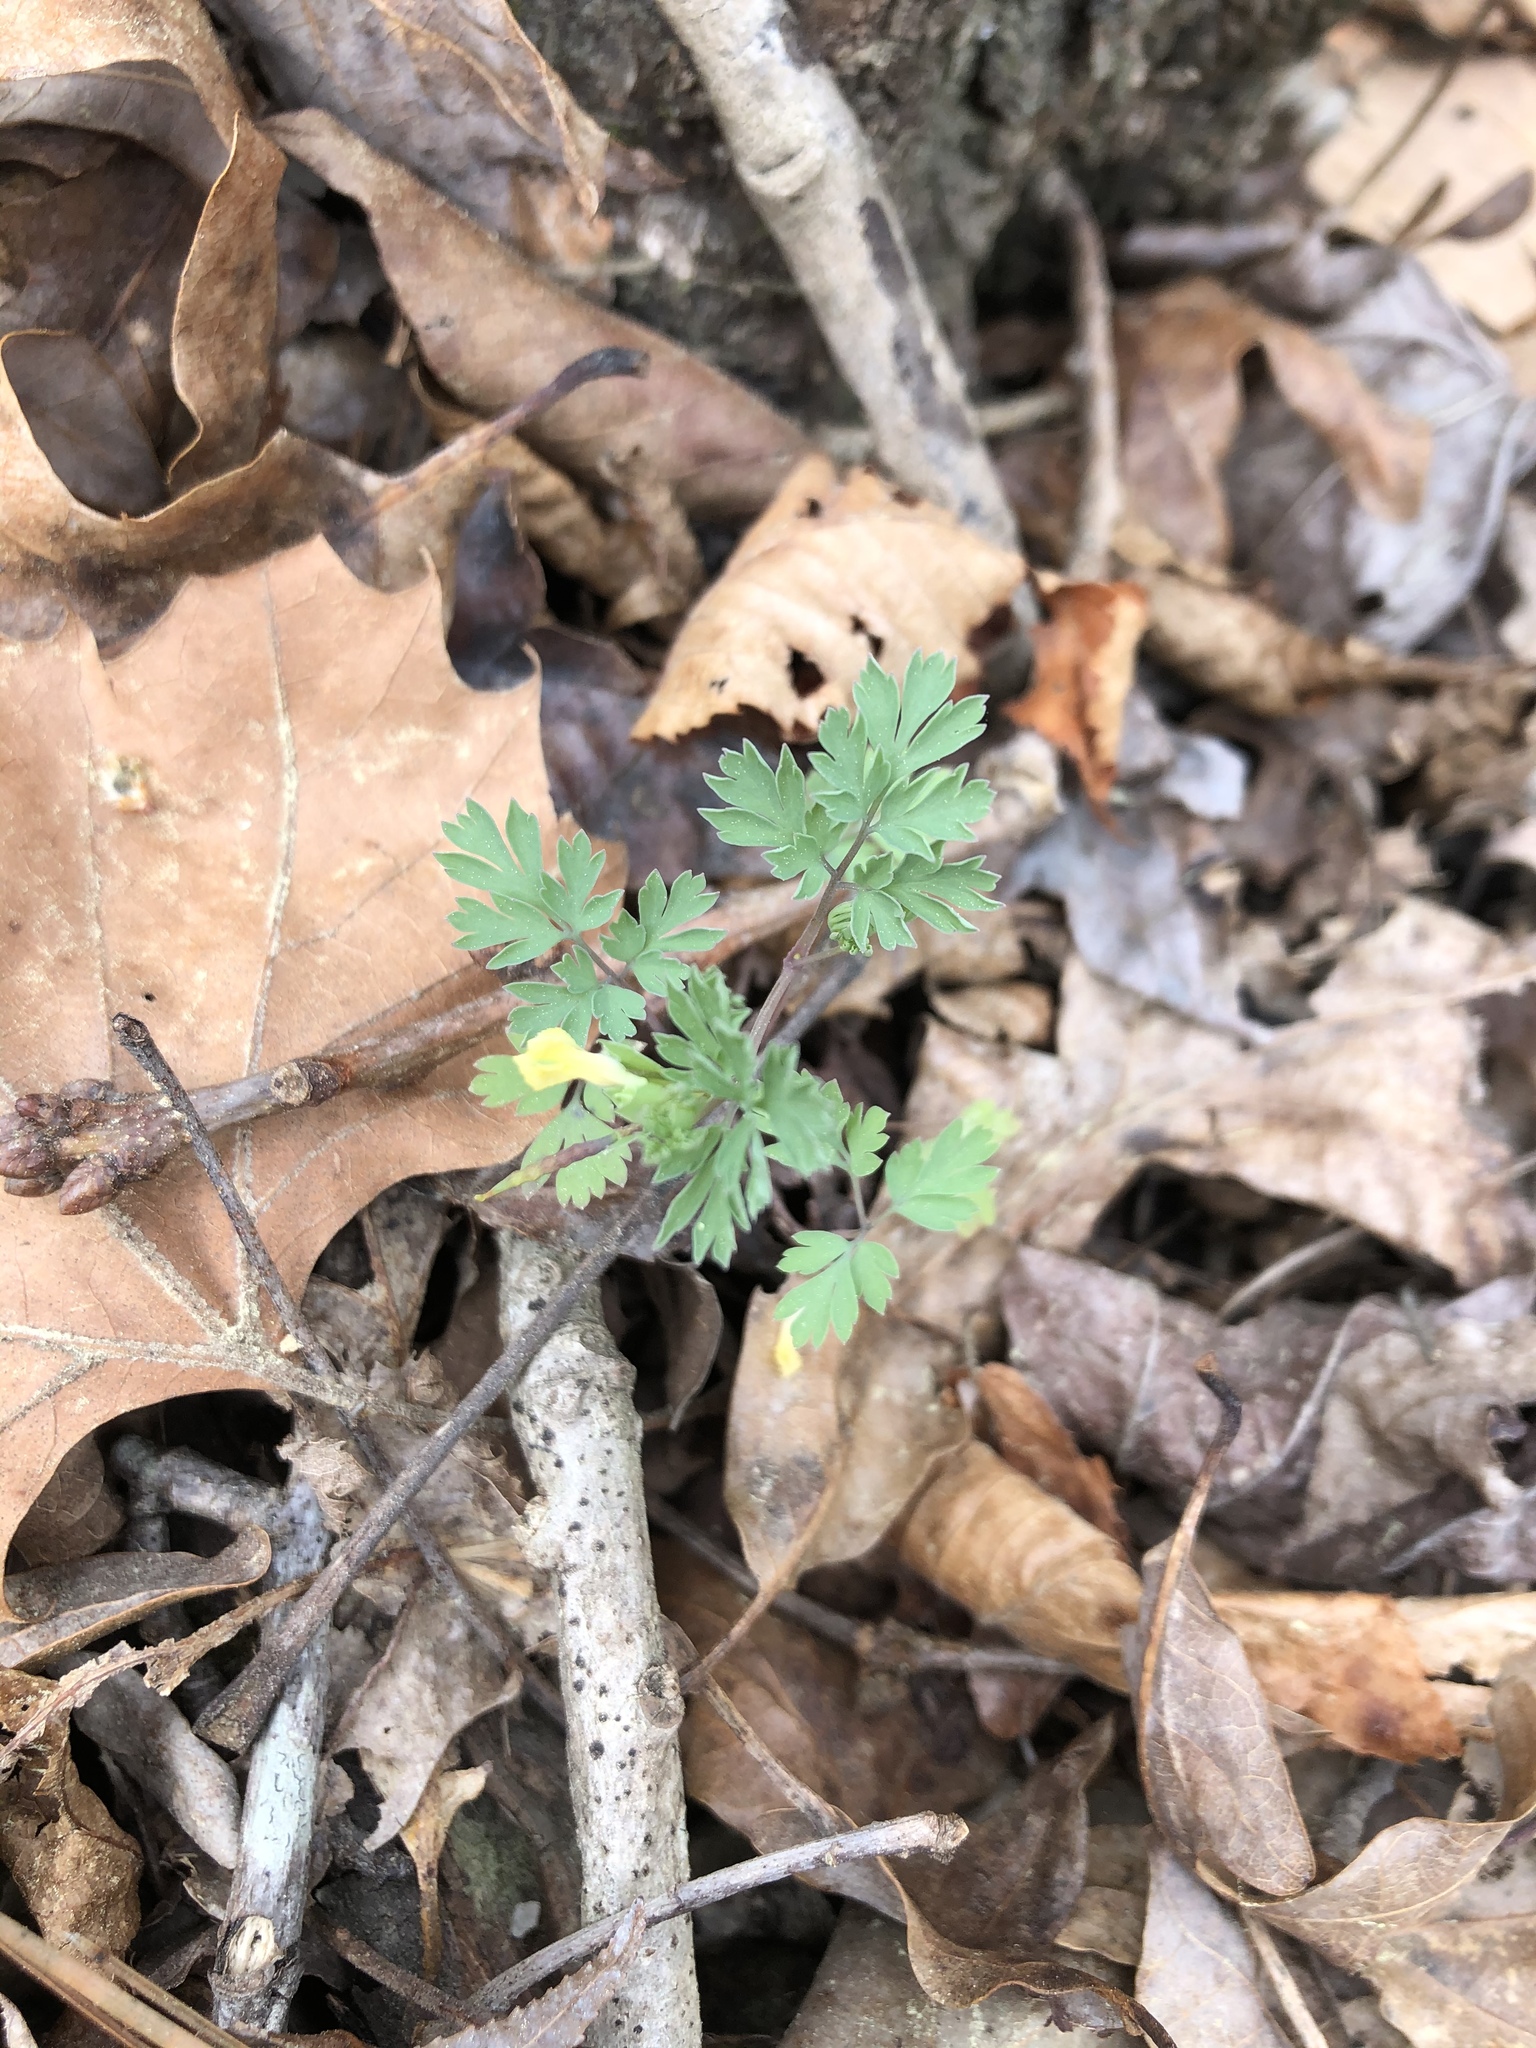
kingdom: Plantae
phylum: Tracheophyta
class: Magnoliopsida
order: Ranunculales
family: Papaveraceae
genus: Corydalis
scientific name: Corydalis flavula
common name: Yellow corydalis
